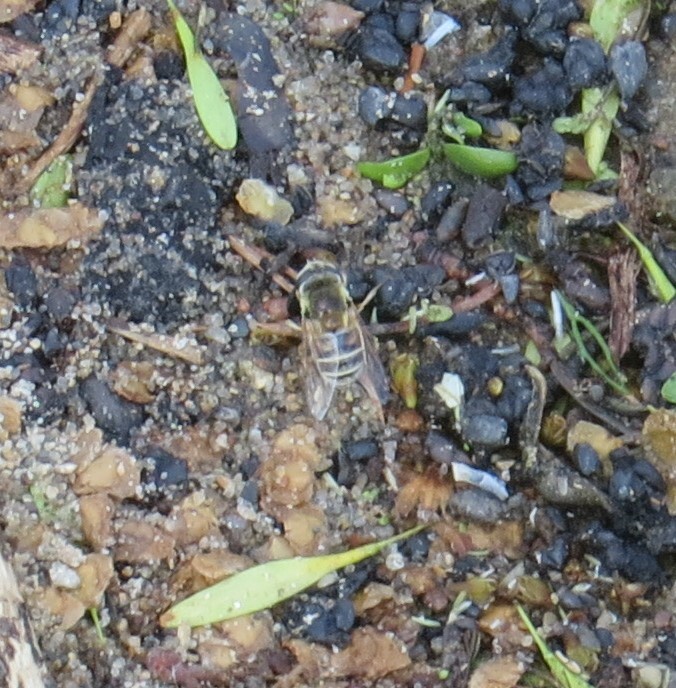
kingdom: Animalia
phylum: Arthropoda
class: Insecta
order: Diptera
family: Syrphidae
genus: Eristalis
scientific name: Eristalis stipator
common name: Yellow-shouldered drone fly
